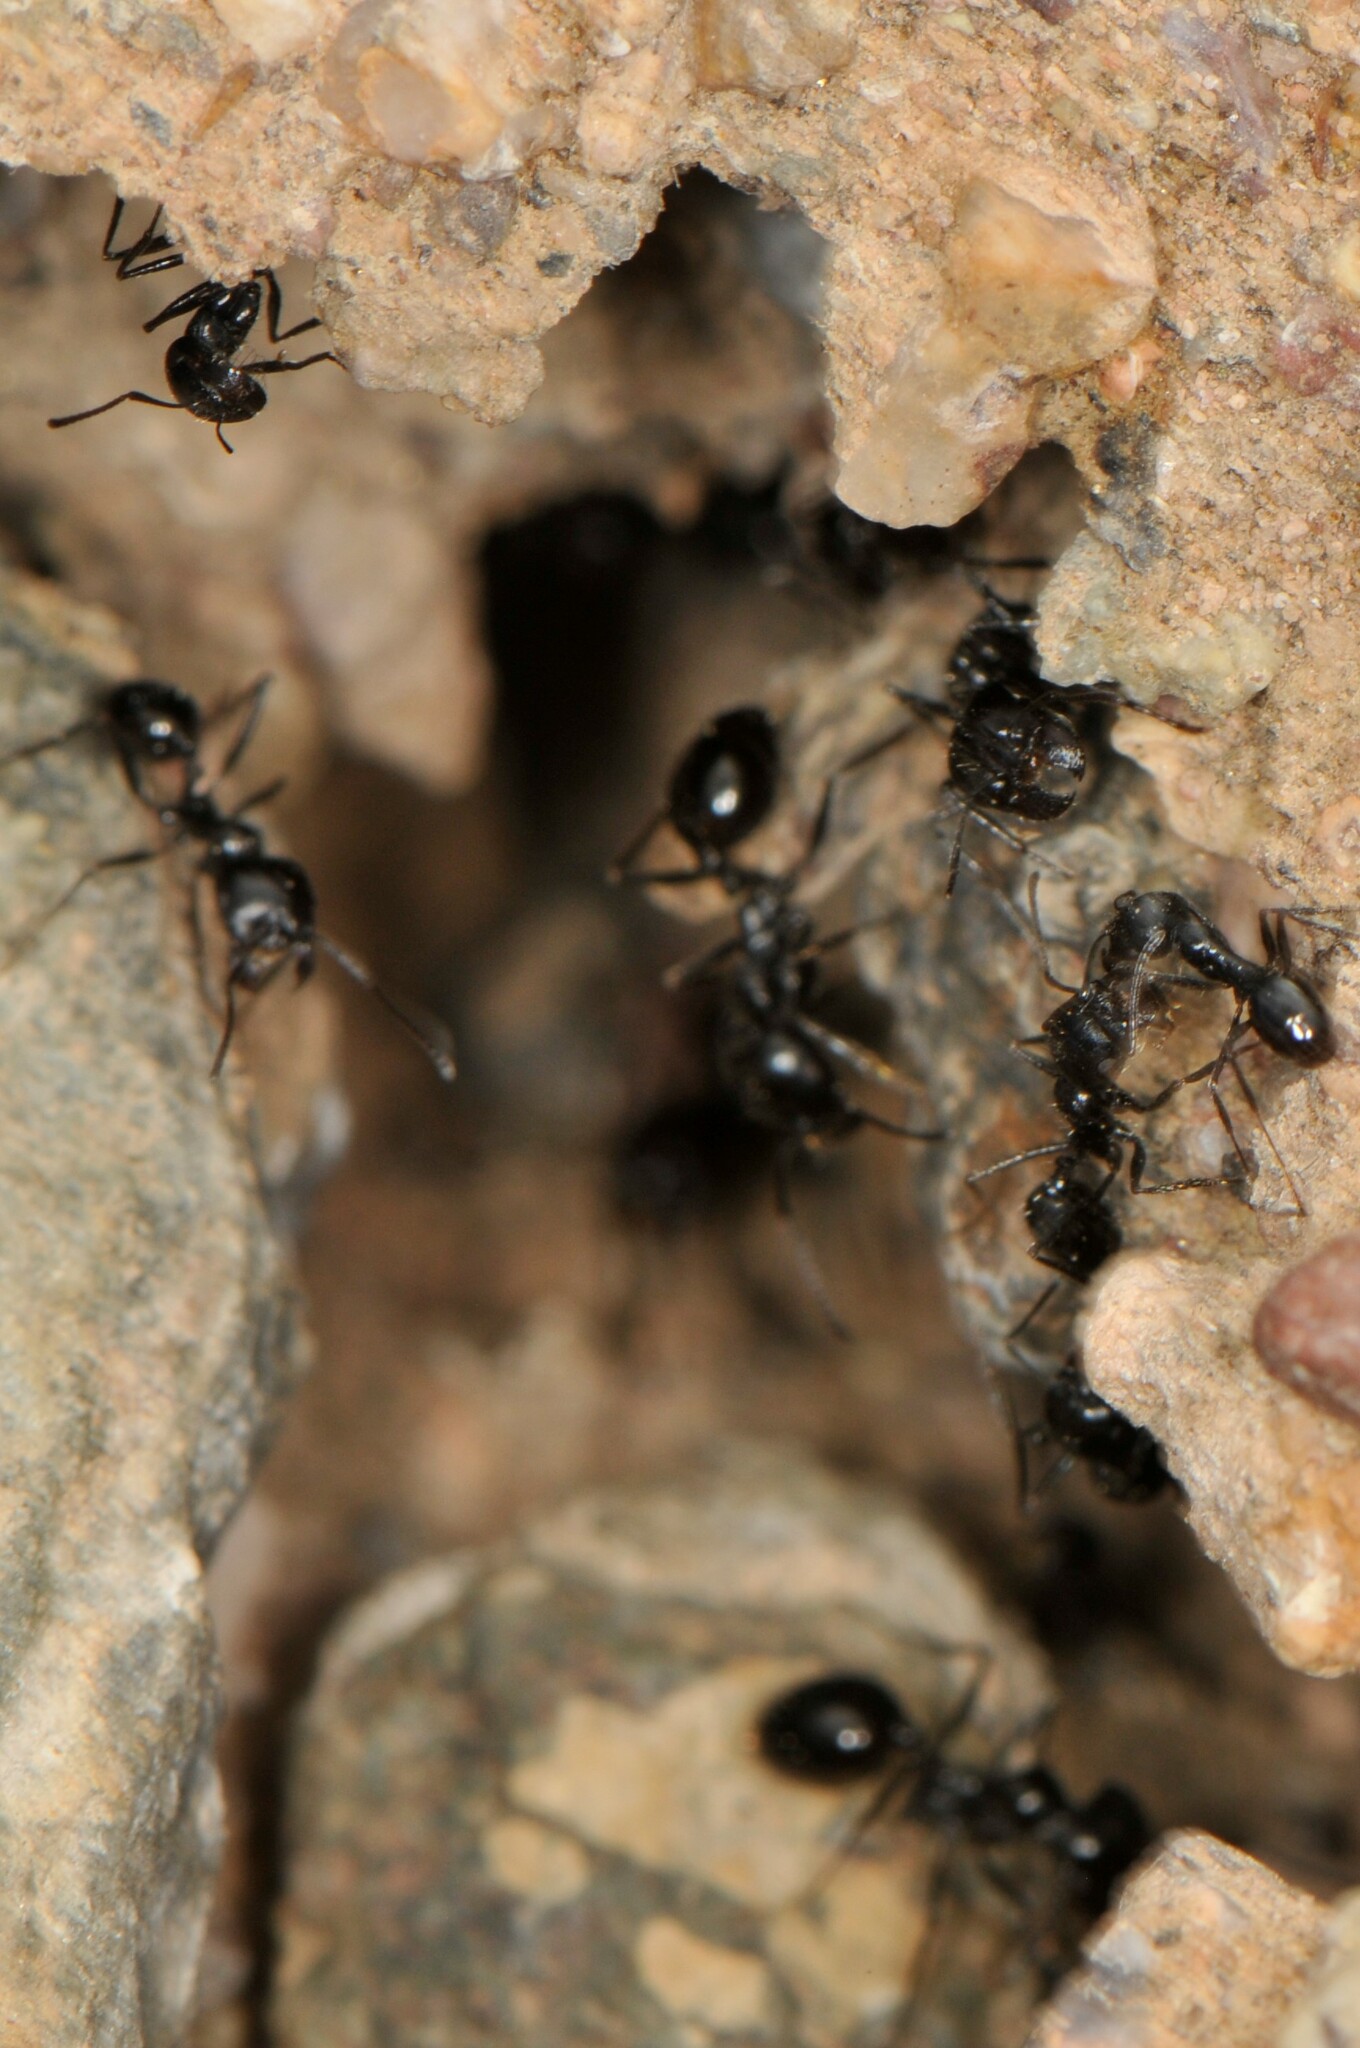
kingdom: Animalia
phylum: Arthropoda
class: Insecta
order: Hymenoptera
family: Formicidae
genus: Messor
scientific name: Messor pergandei
